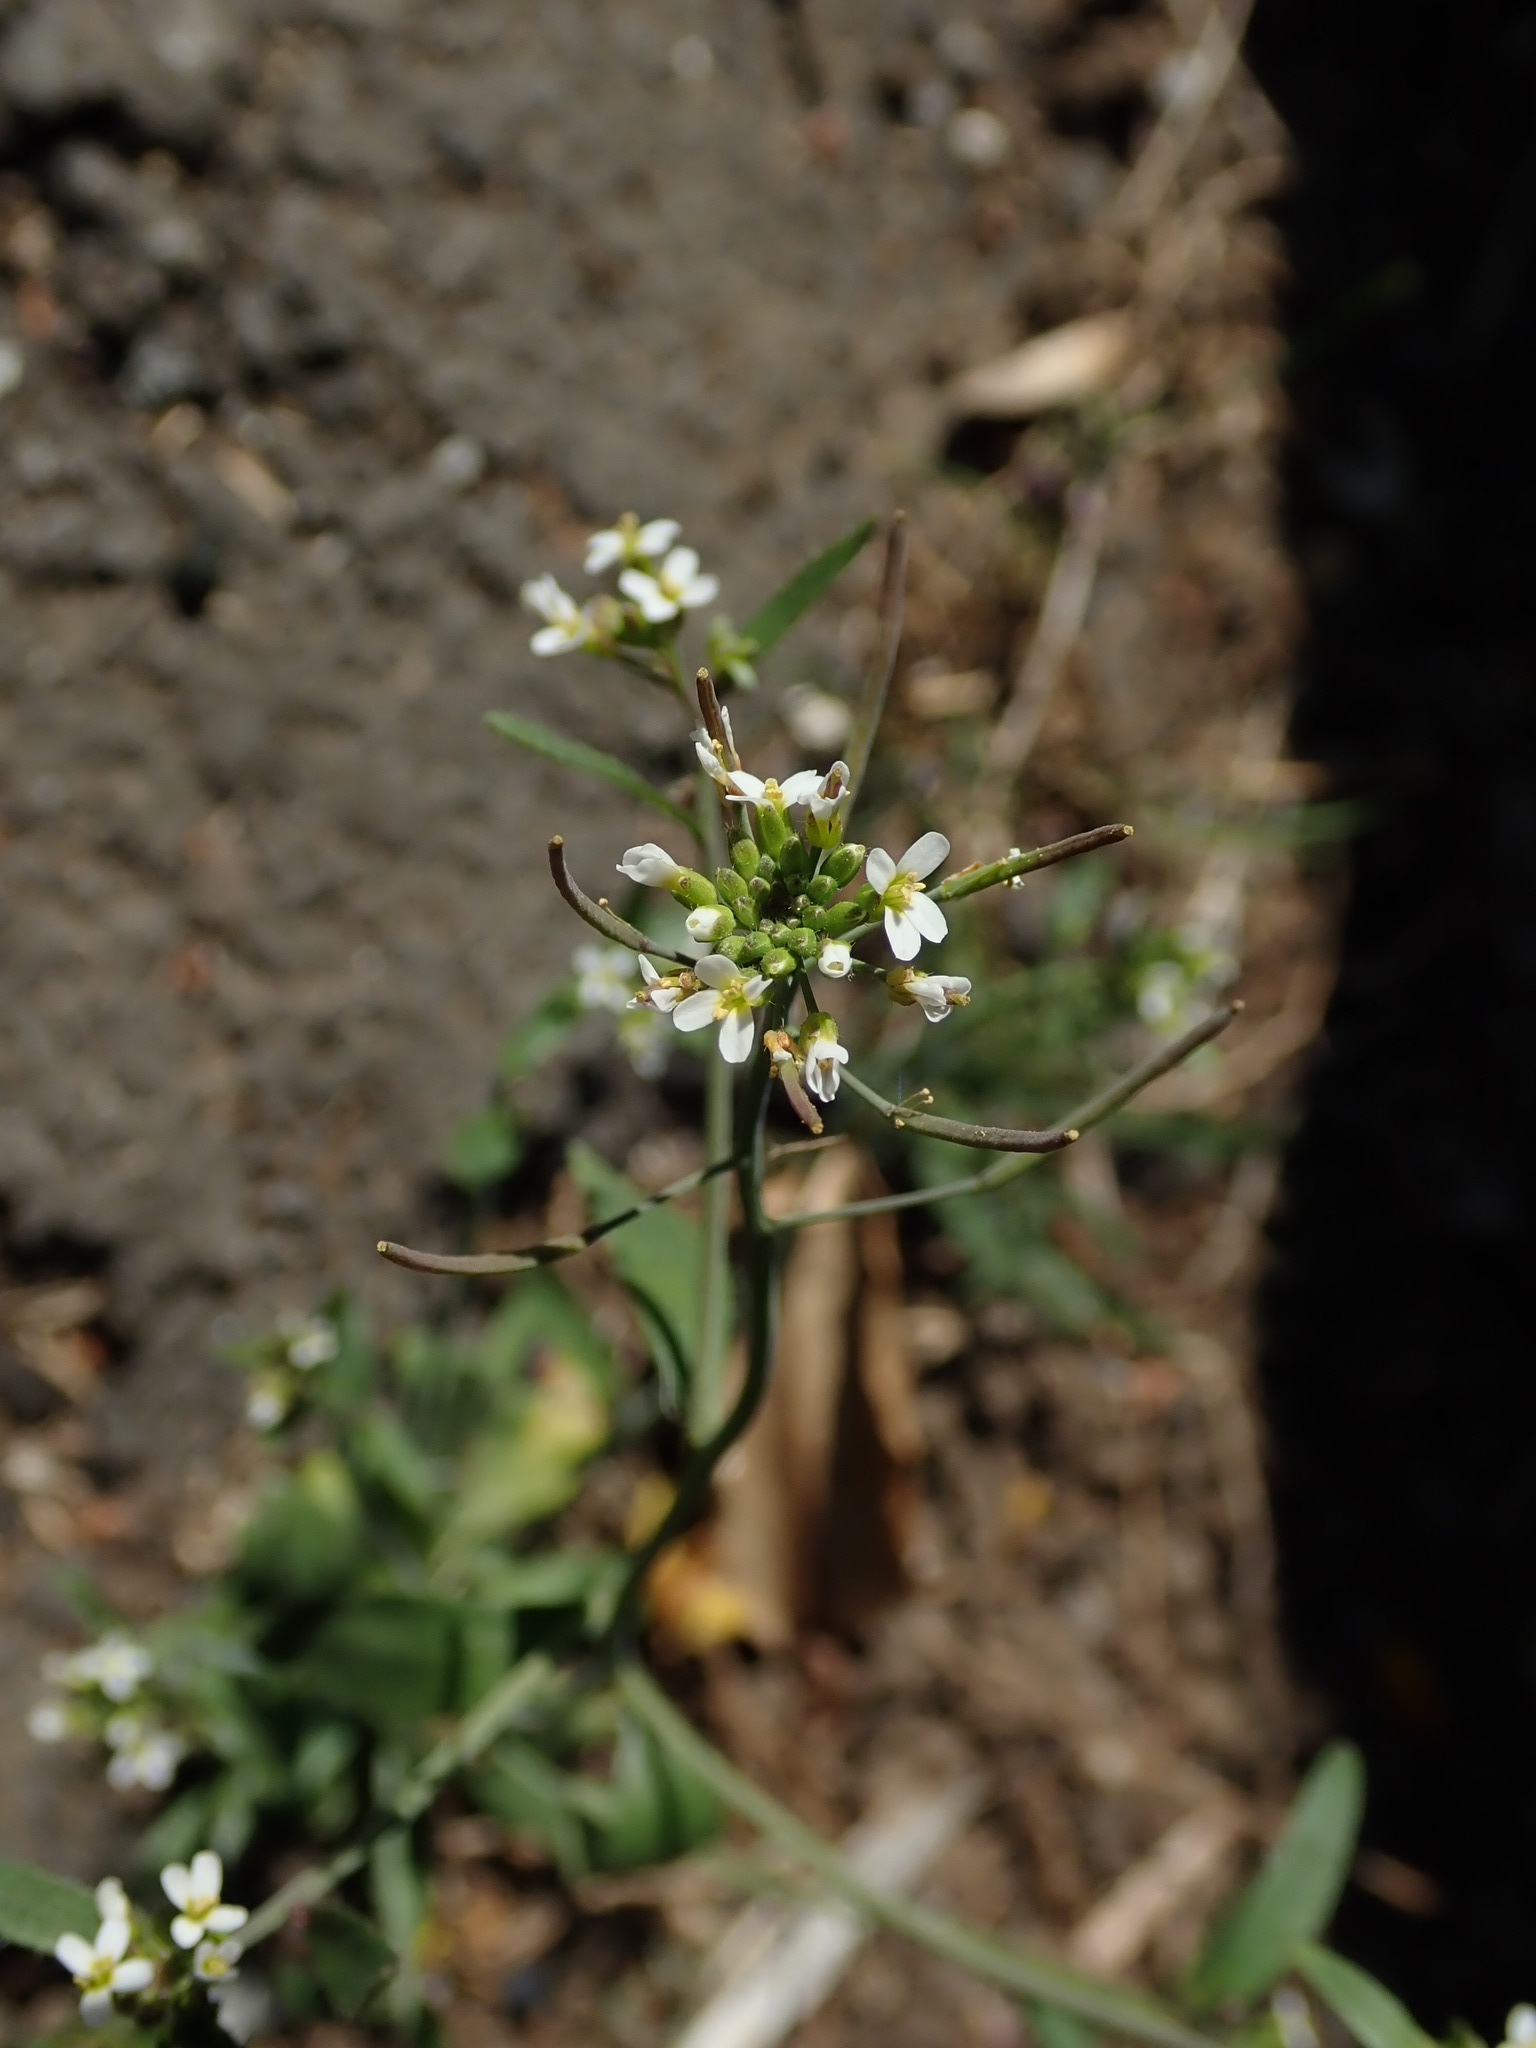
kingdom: Plantae
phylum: Tracheophyta
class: Magnoliopsida
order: Brassicales
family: Brassicaceae
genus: Arabidopsis
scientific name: Arabidopsis thaliana
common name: Thale cress
